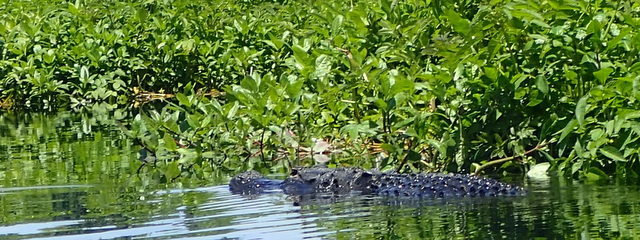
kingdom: Animalia
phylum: Chordata
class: Crocodylia
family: Alligatoridae
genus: Alligator
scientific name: Alligator mississippiensis
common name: American alligator
